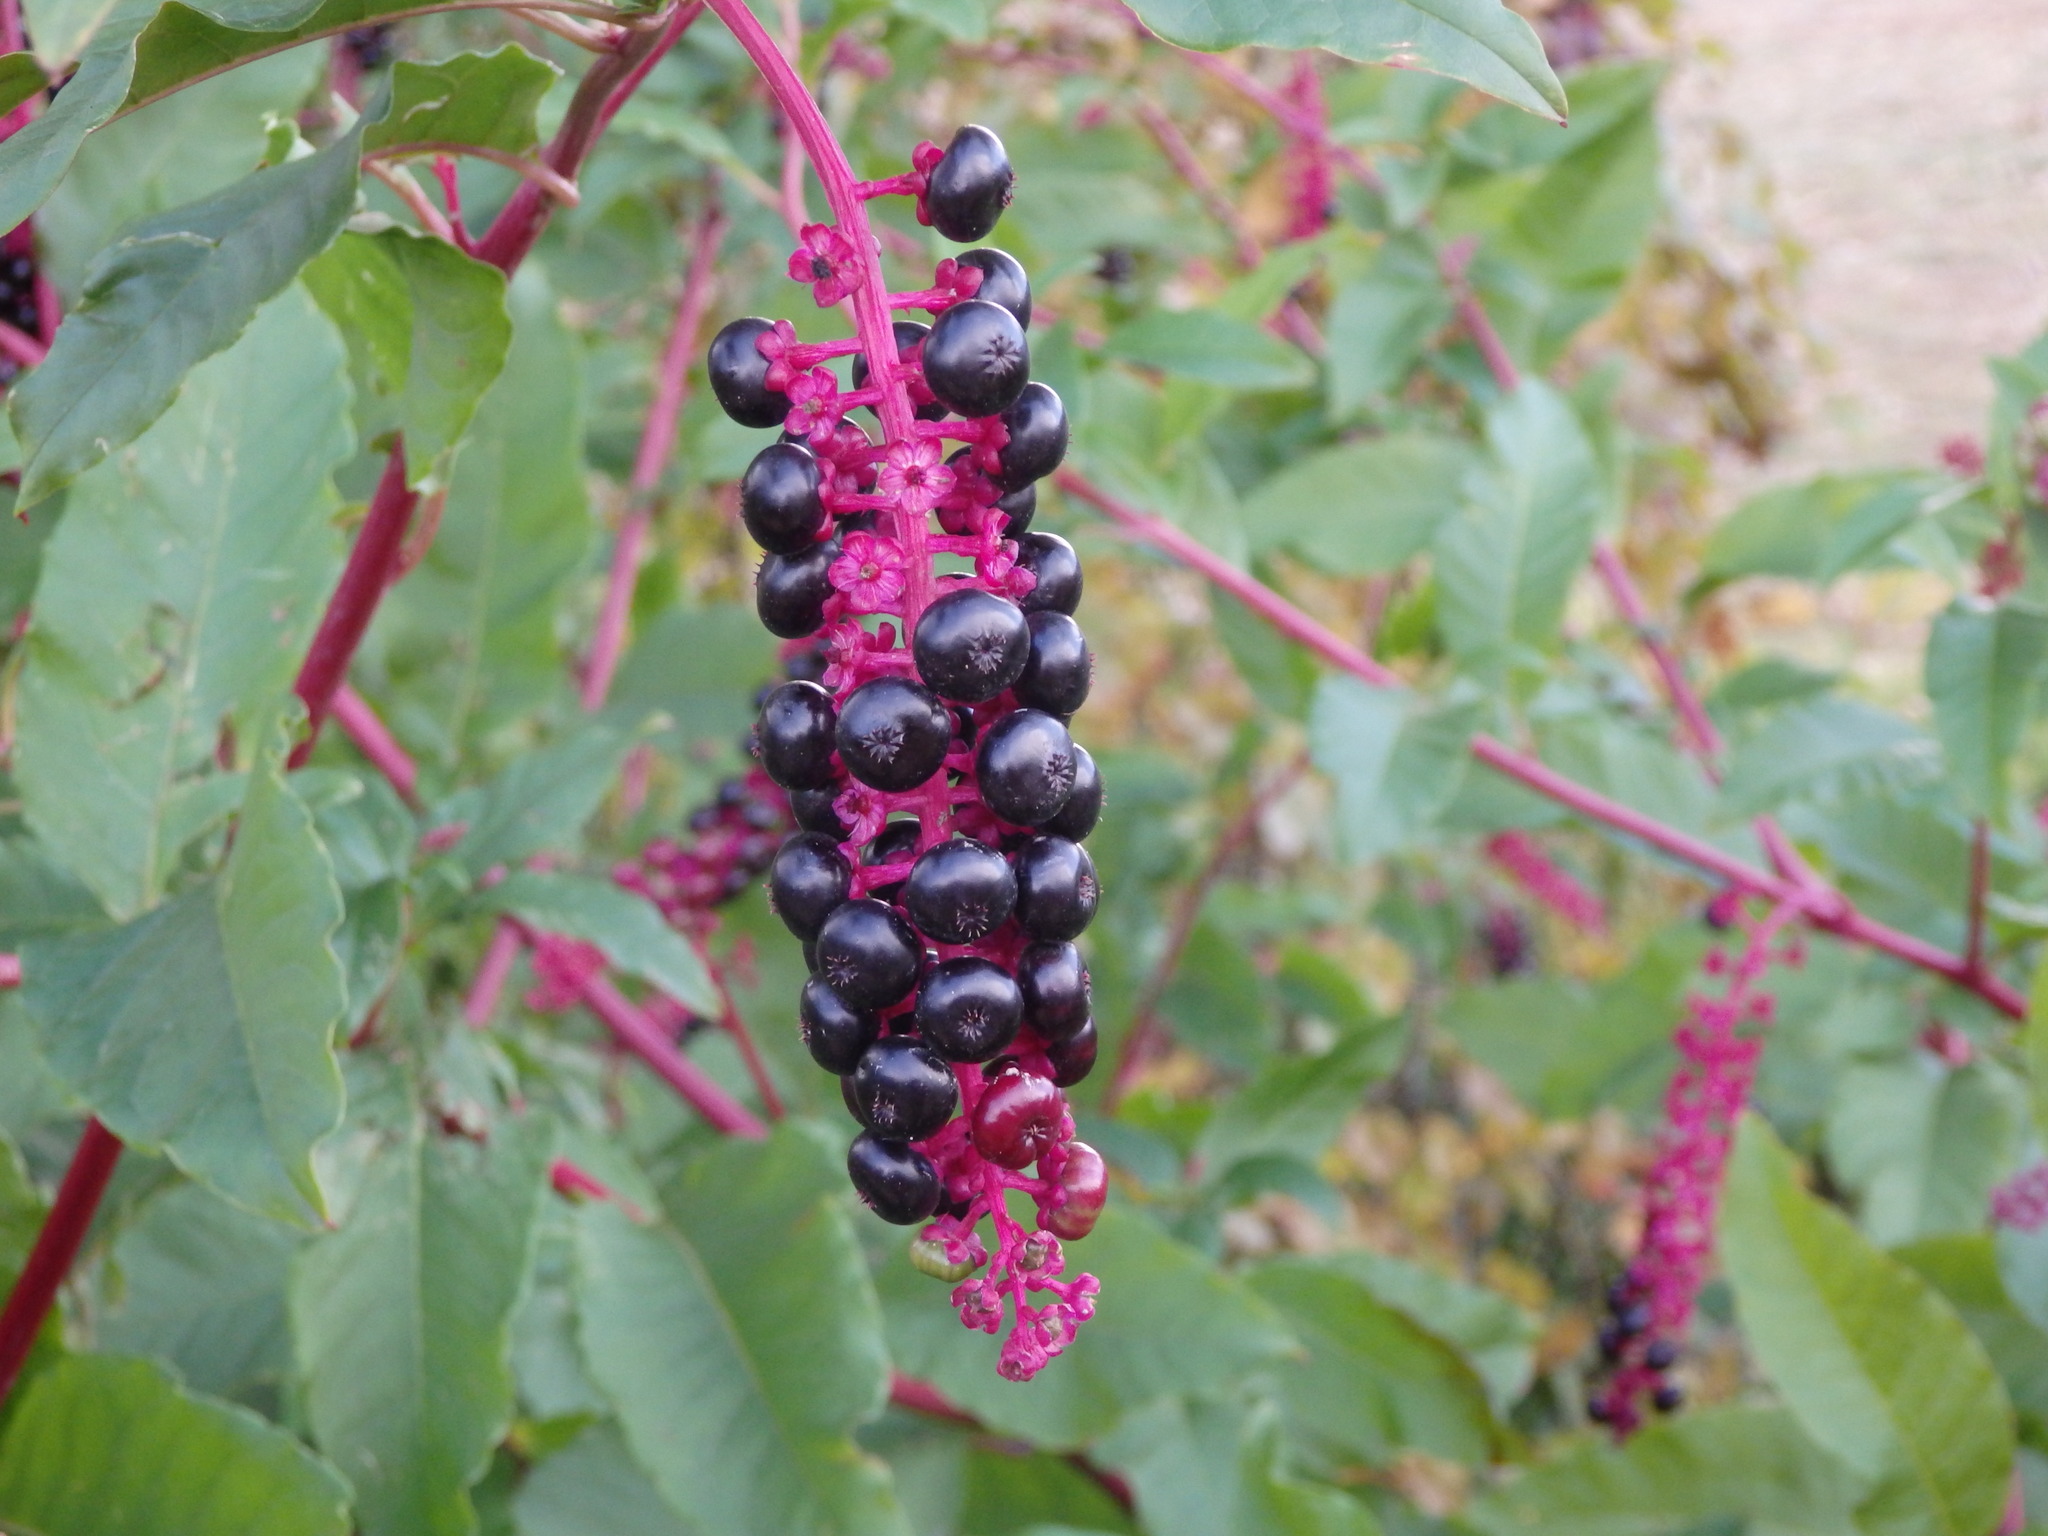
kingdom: Plantae
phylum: Tracheophyta
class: Magnoliopsida
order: Caryophyllales
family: Phytolaccaceae
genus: Phytolacca
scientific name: Phytolacca americana
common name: American pokeweed
